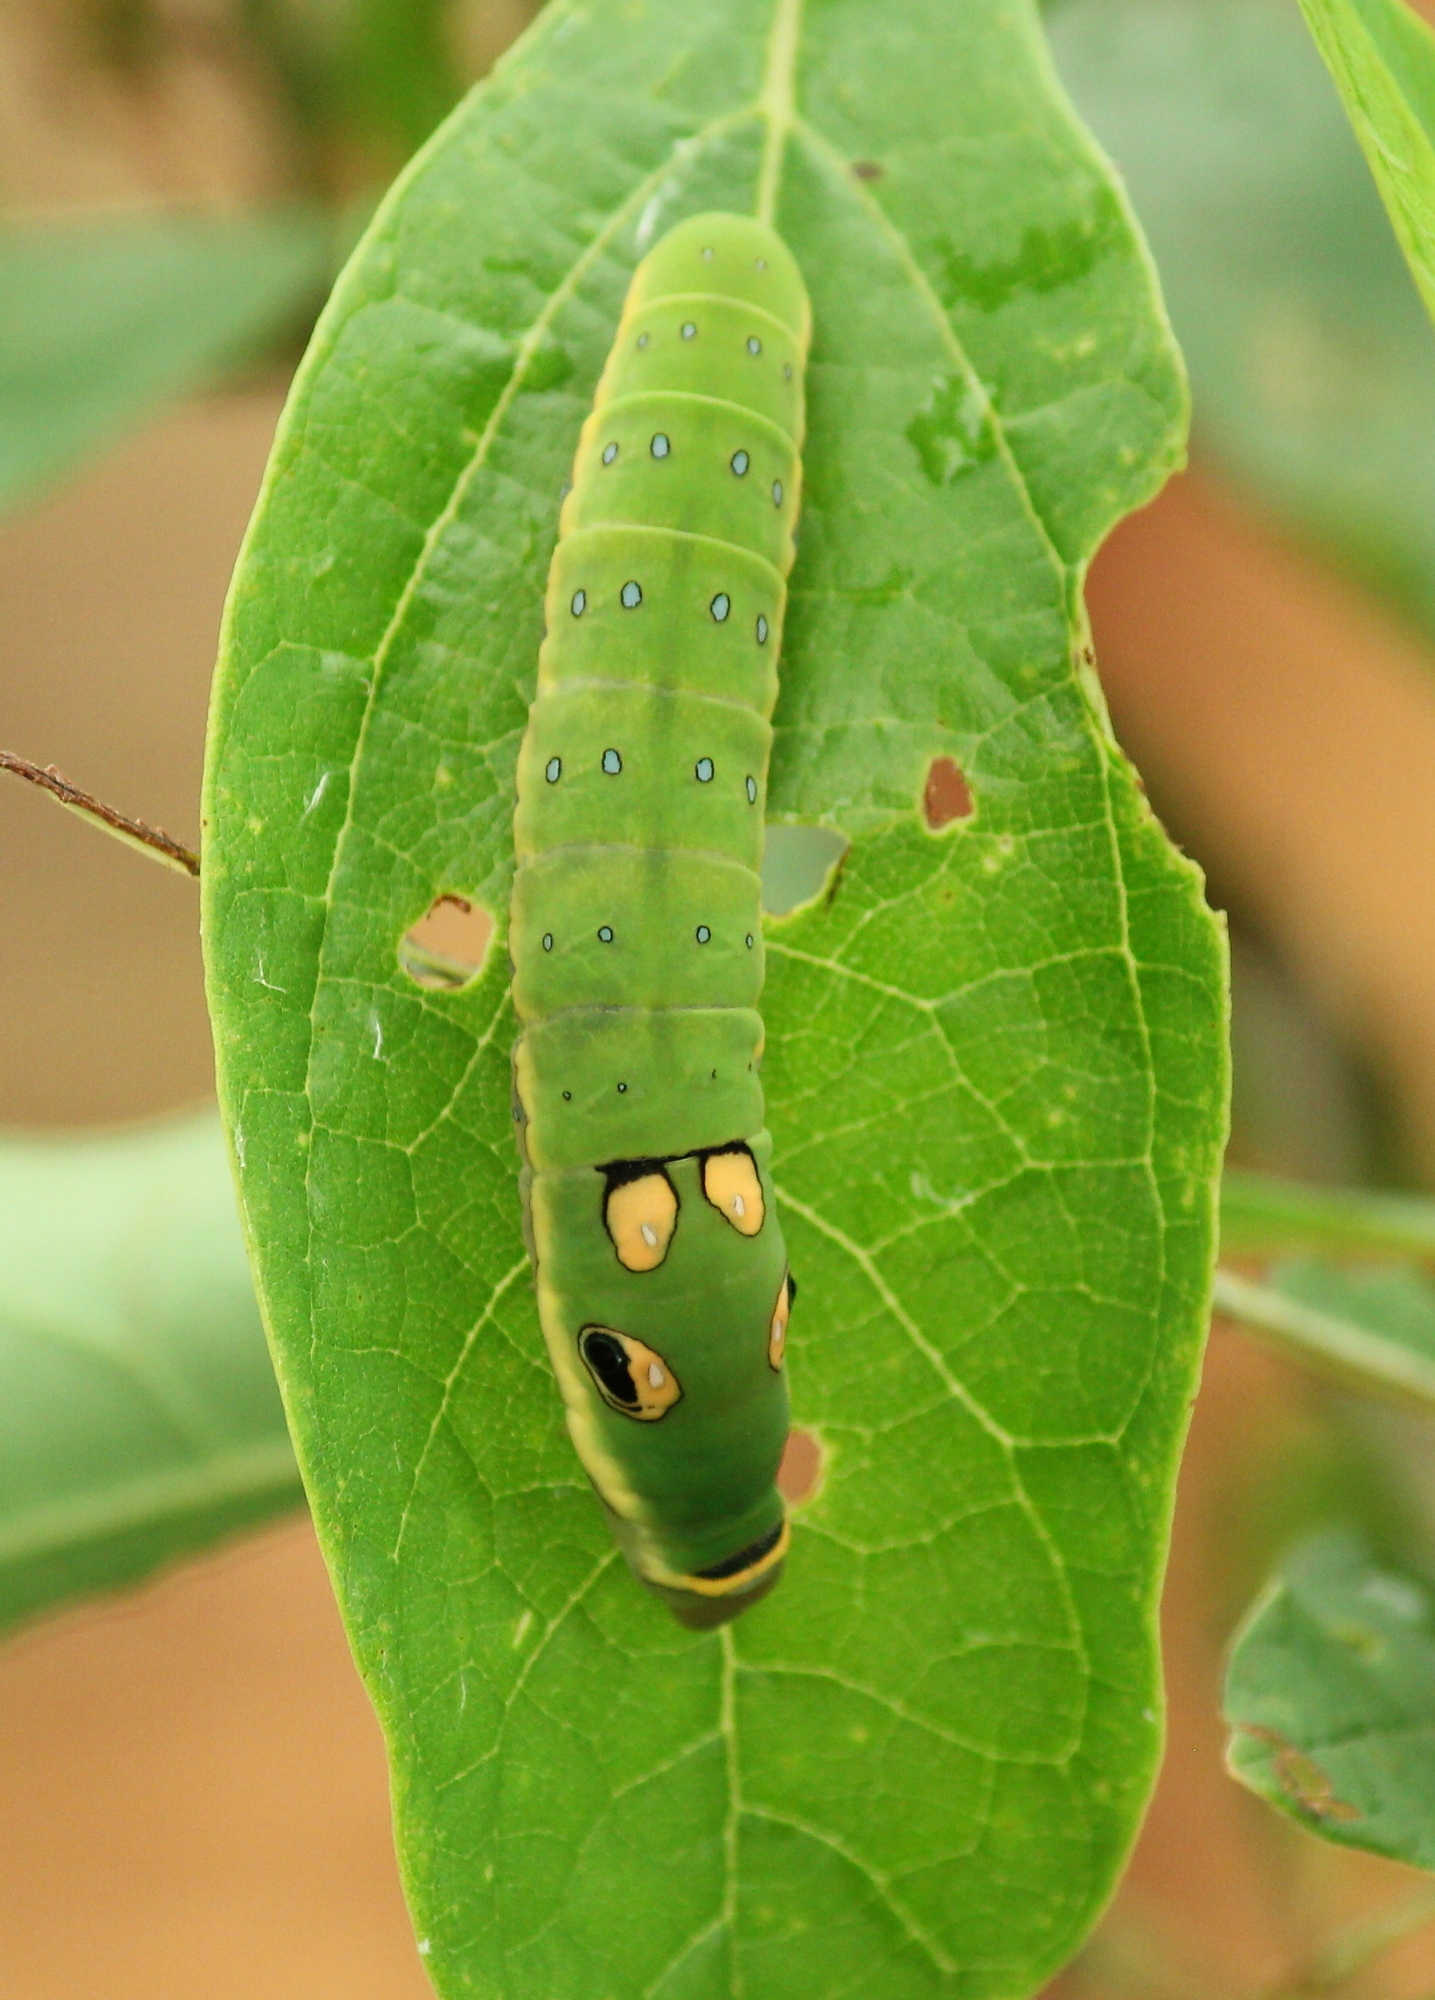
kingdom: Animalia
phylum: Arthropoda
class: Insecta
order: Lepidoptera
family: Papilionidae
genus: Papilio
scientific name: Papilio troilus
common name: Spicebush swallowtail
